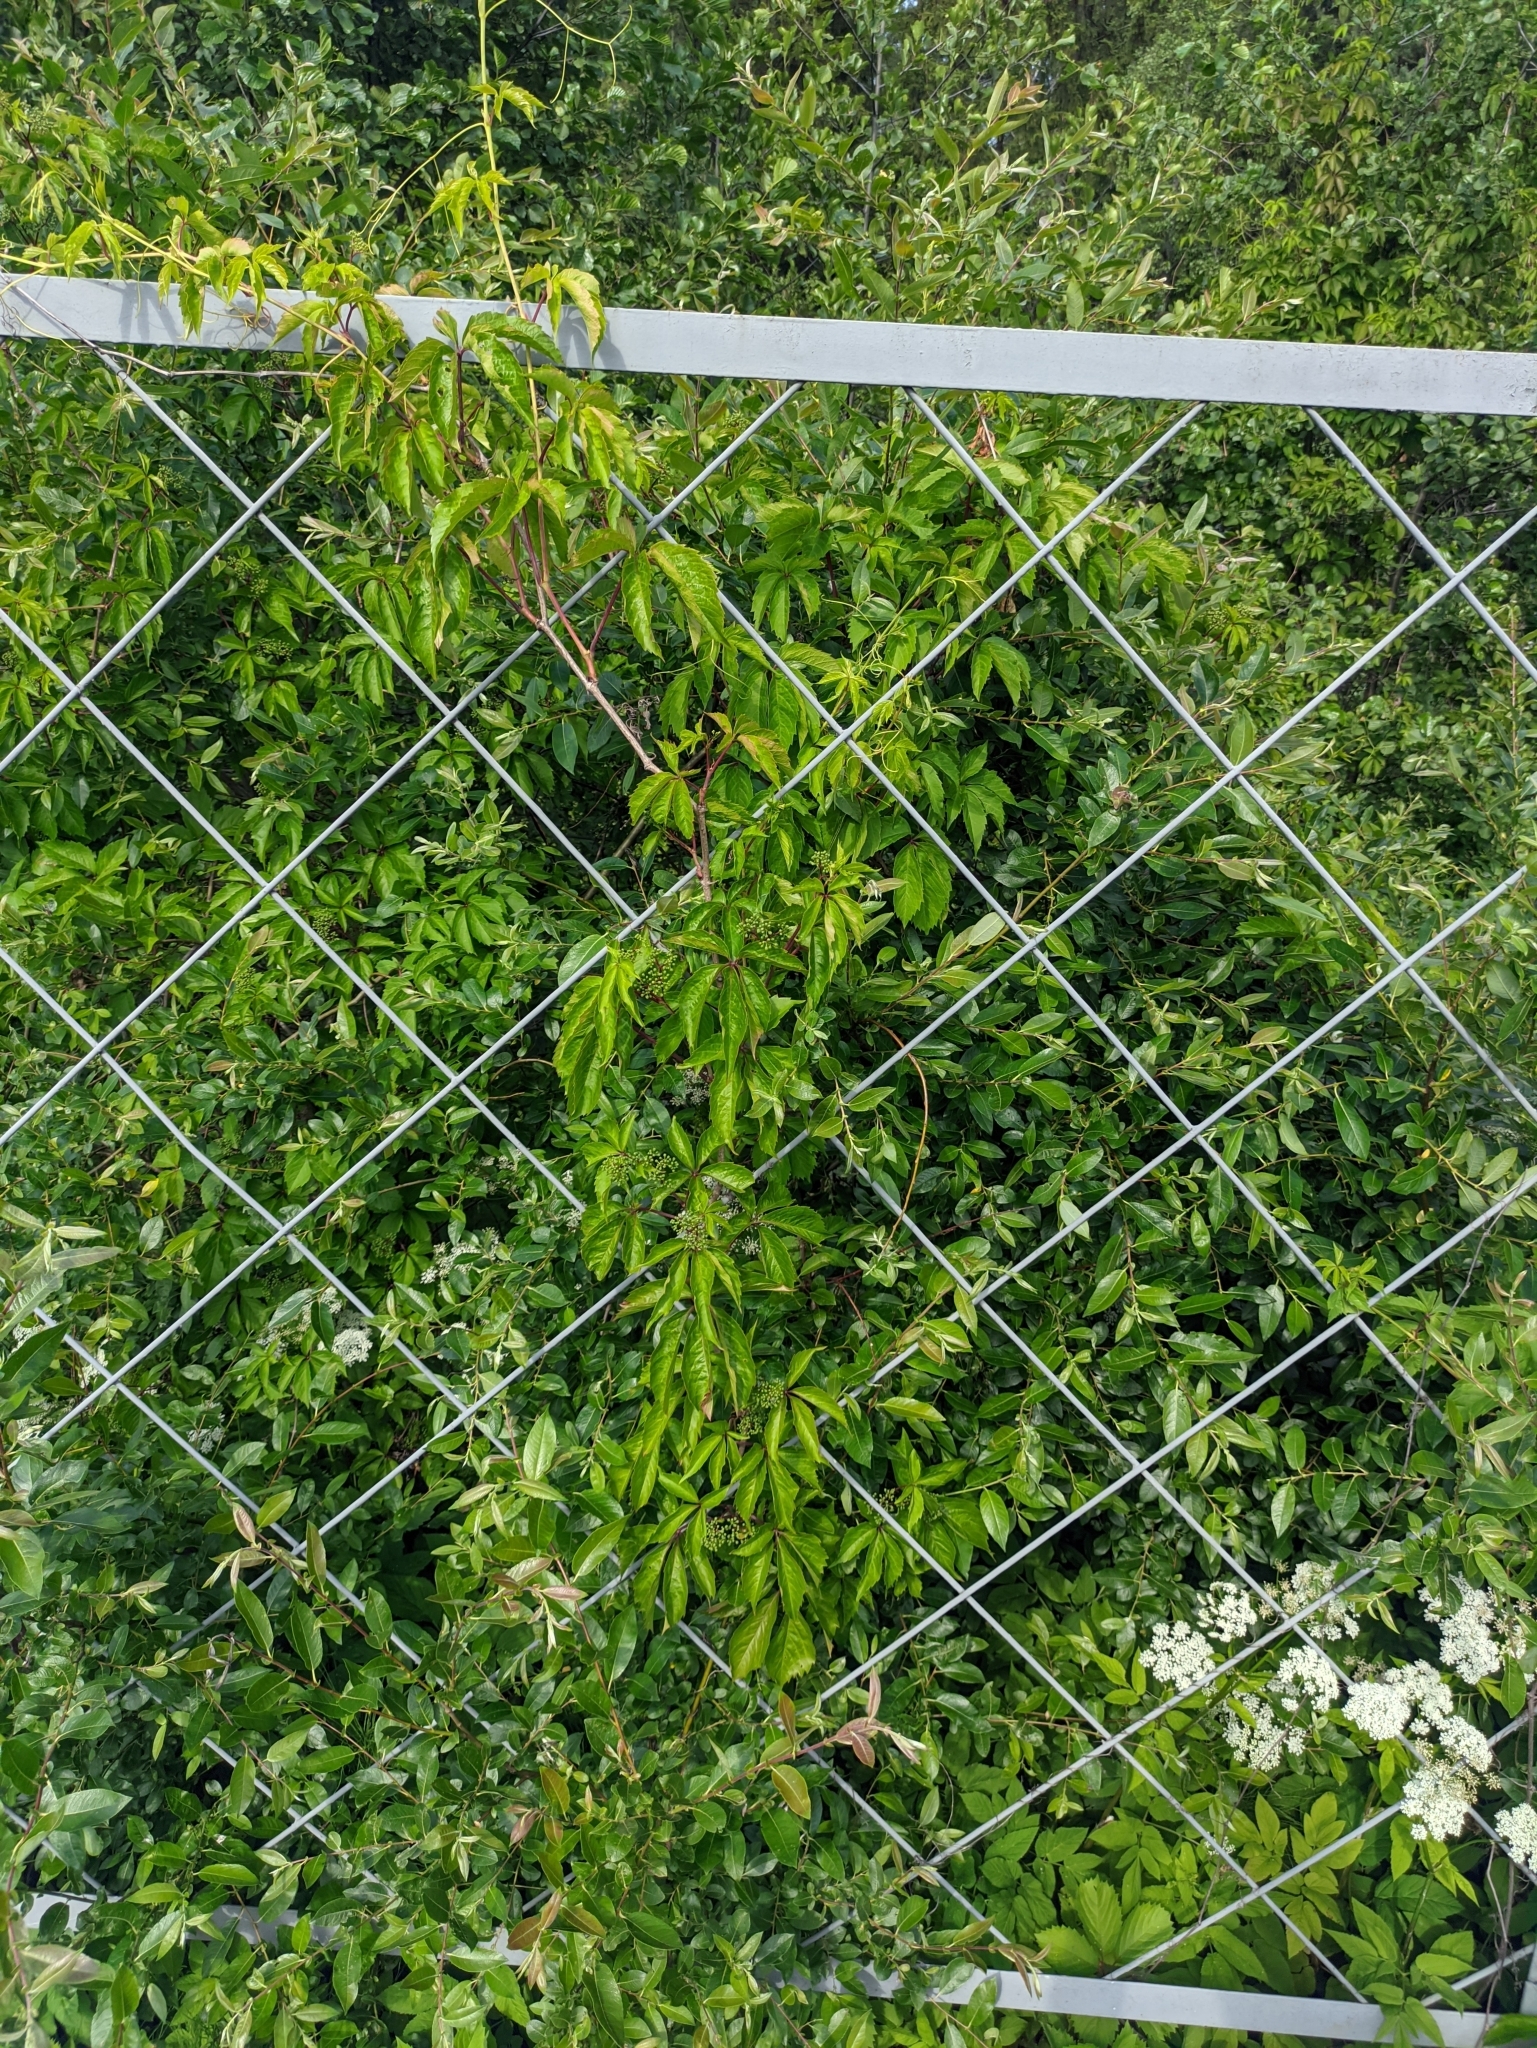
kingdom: Plantae
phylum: Tracheophyta
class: Magnoliopsida
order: Vitales
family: Vitaceae
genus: Parthenocissus
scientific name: Parthenocissus inserta
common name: False virginia-creeper
